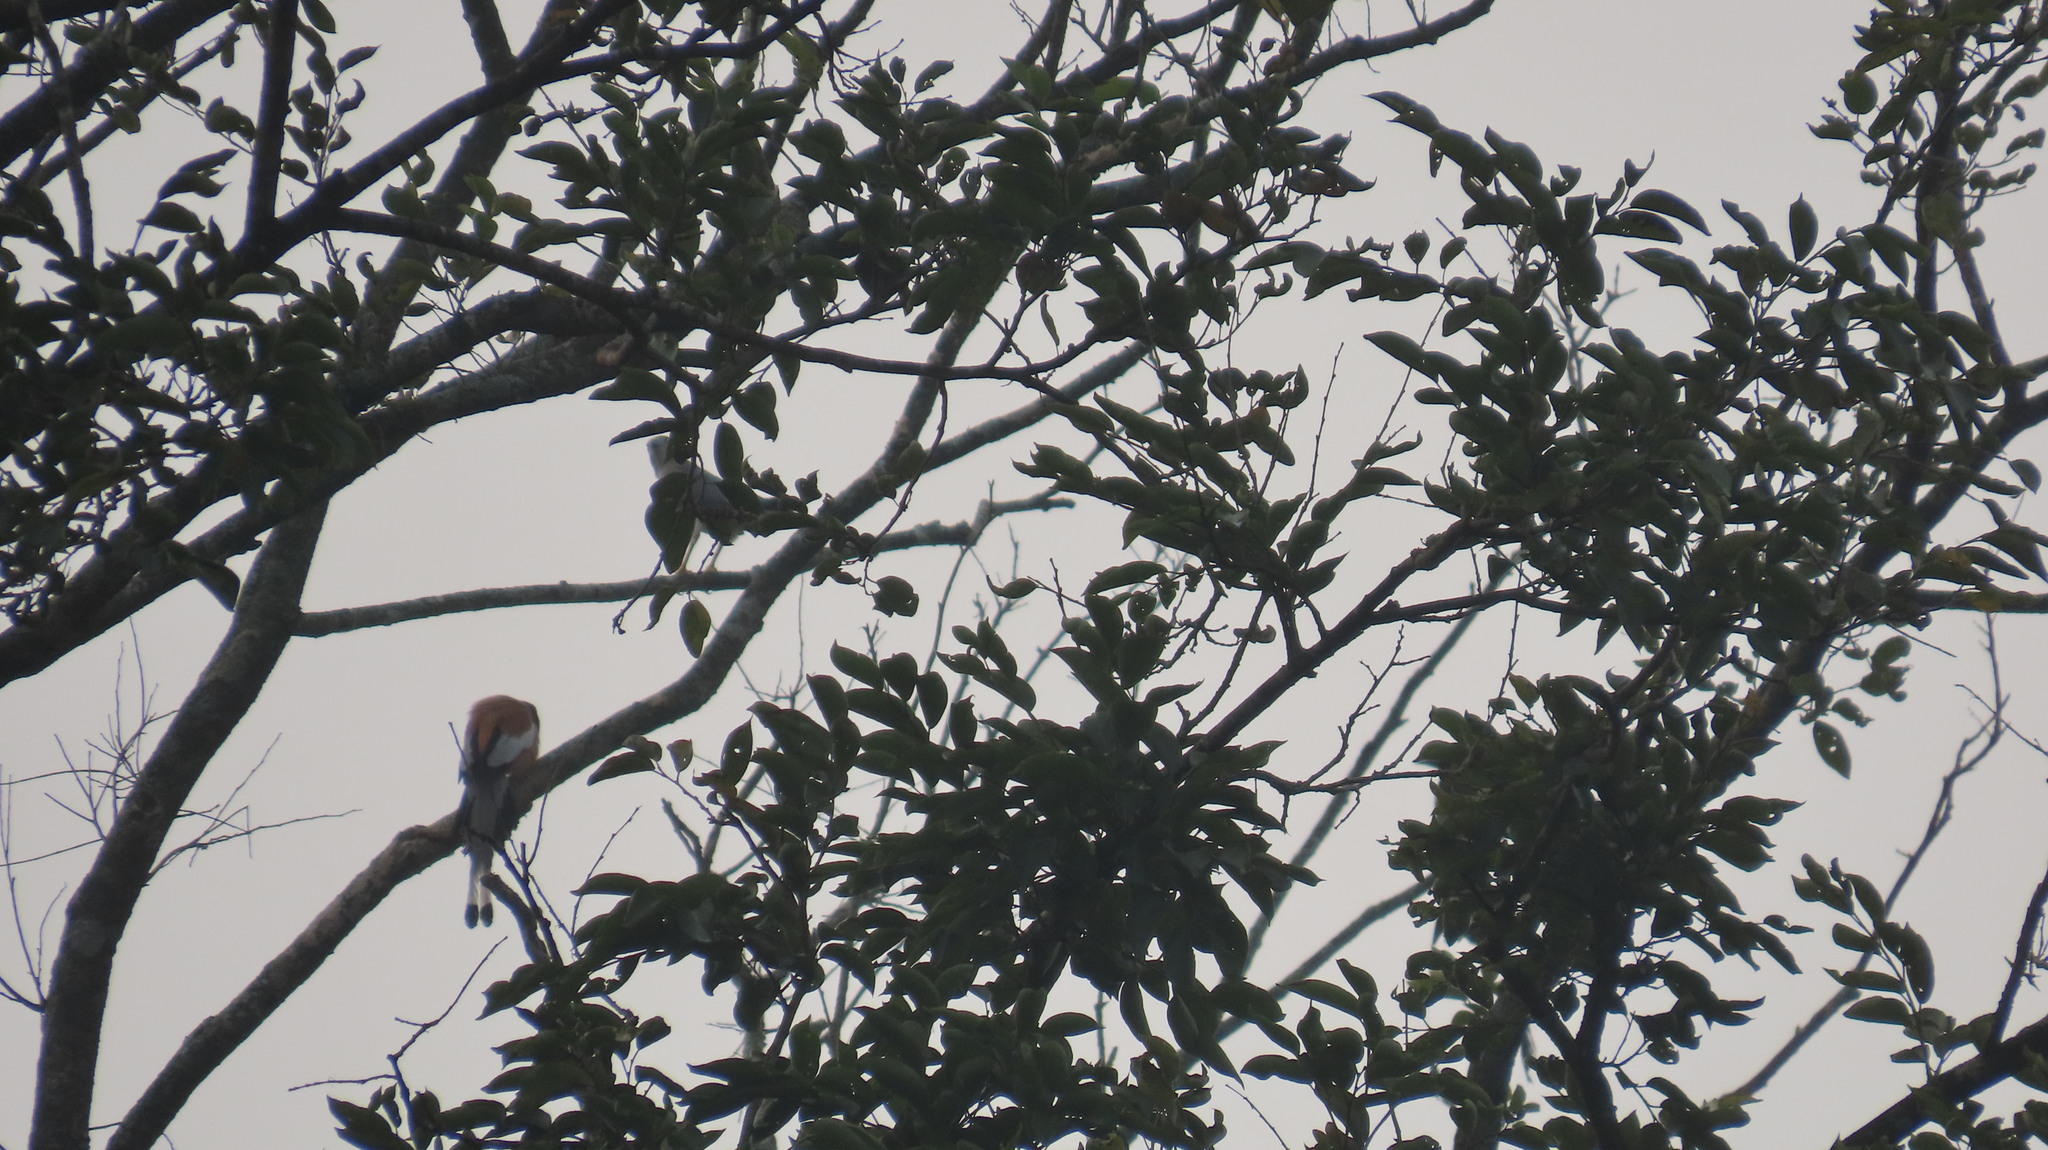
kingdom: Animalia
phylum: Chordata
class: Aves
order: Passeriformes
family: Corvidae
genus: Dendrocitta
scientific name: Dendrocitta vagabunda
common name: Rufous treepie
